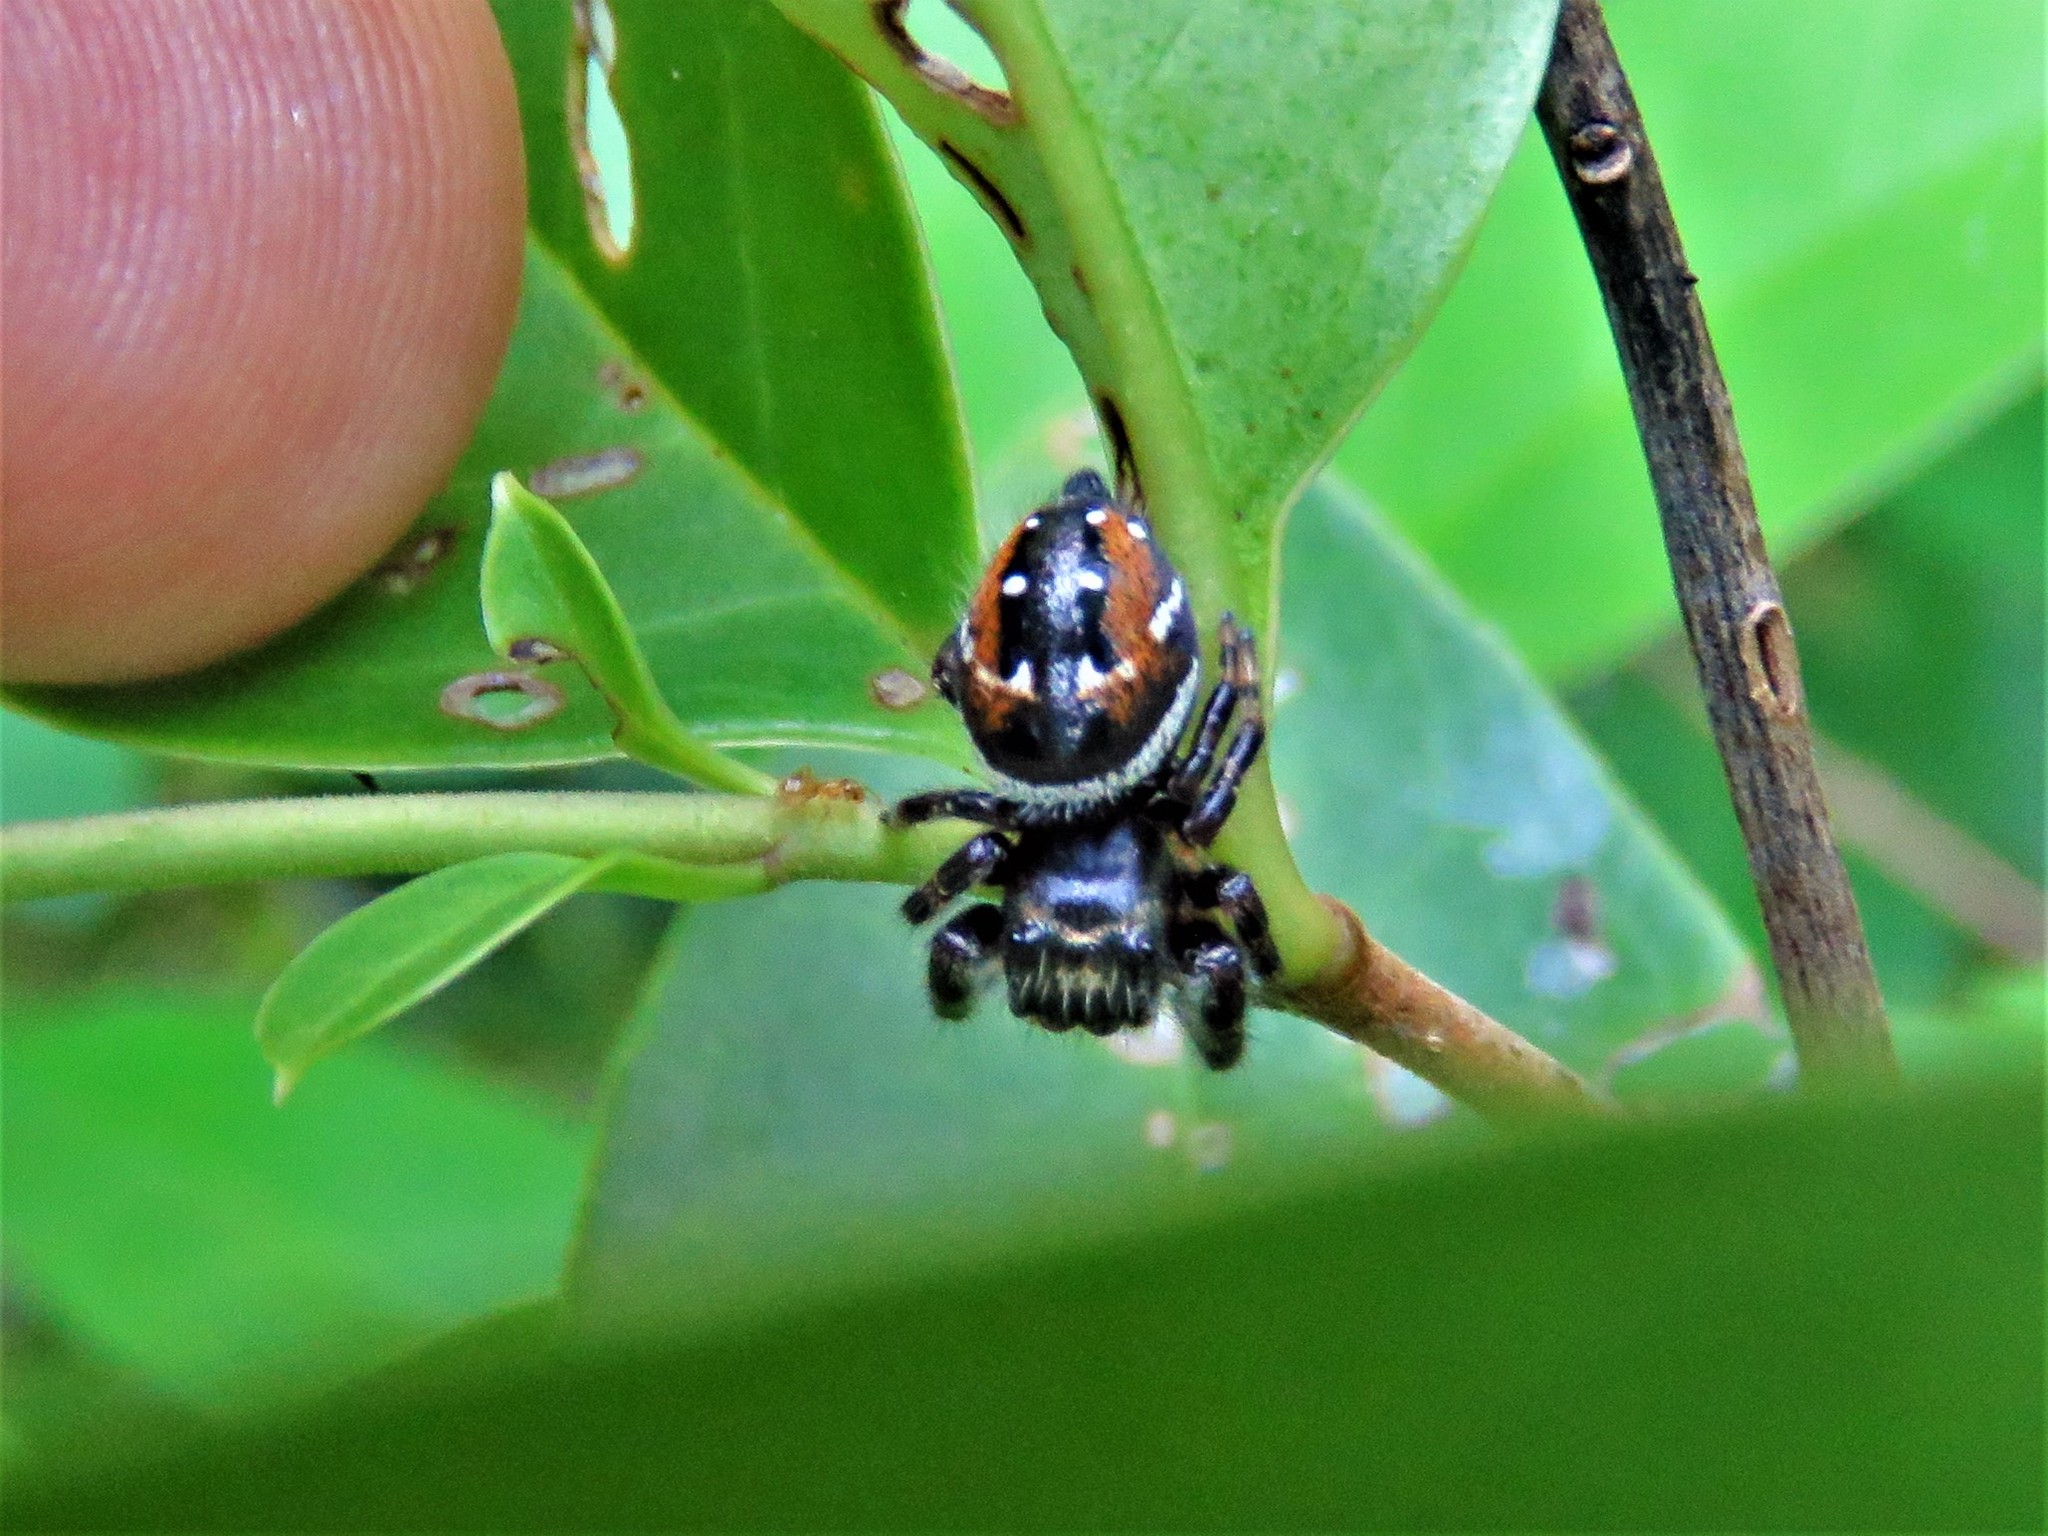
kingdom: Animalia
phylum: Arthropoda
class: Arachnida
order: Araneae
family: Salticidae
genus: Phidippus
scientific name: Phidippus clarus
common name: Brilliant jumping spider
